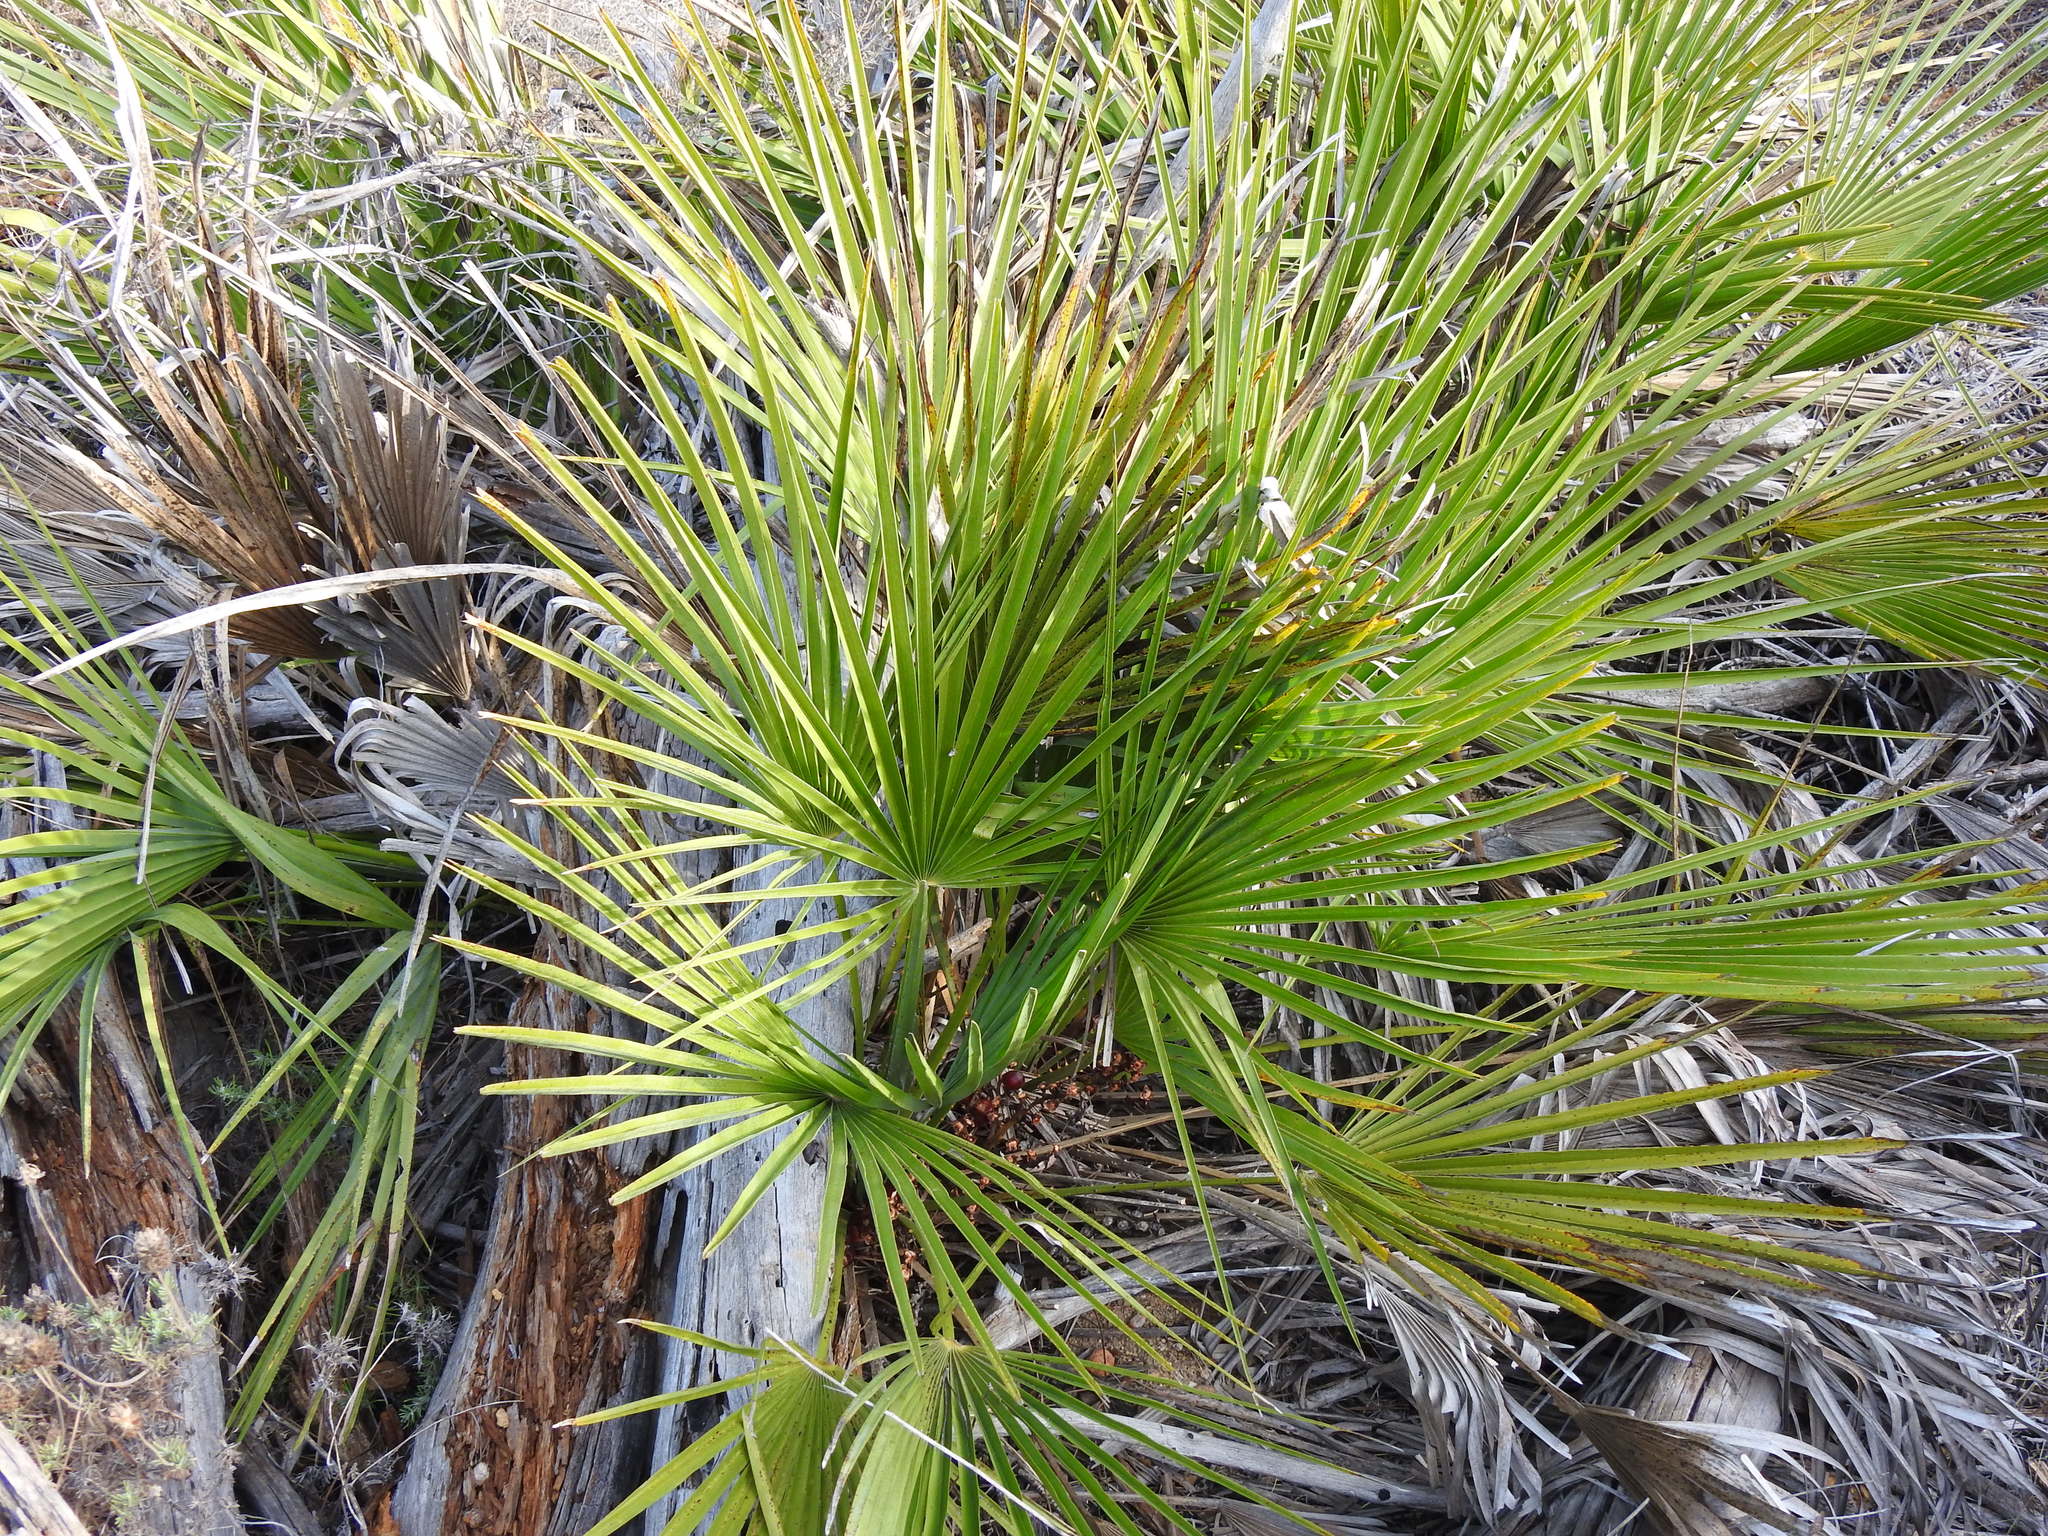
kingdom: Plantae
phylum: Tracheophyta
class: Liliopsida
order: Arecales
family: Arecaceae
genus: Chamaerops
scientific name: Chamaerops humilis
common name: Dwarf fan palm
